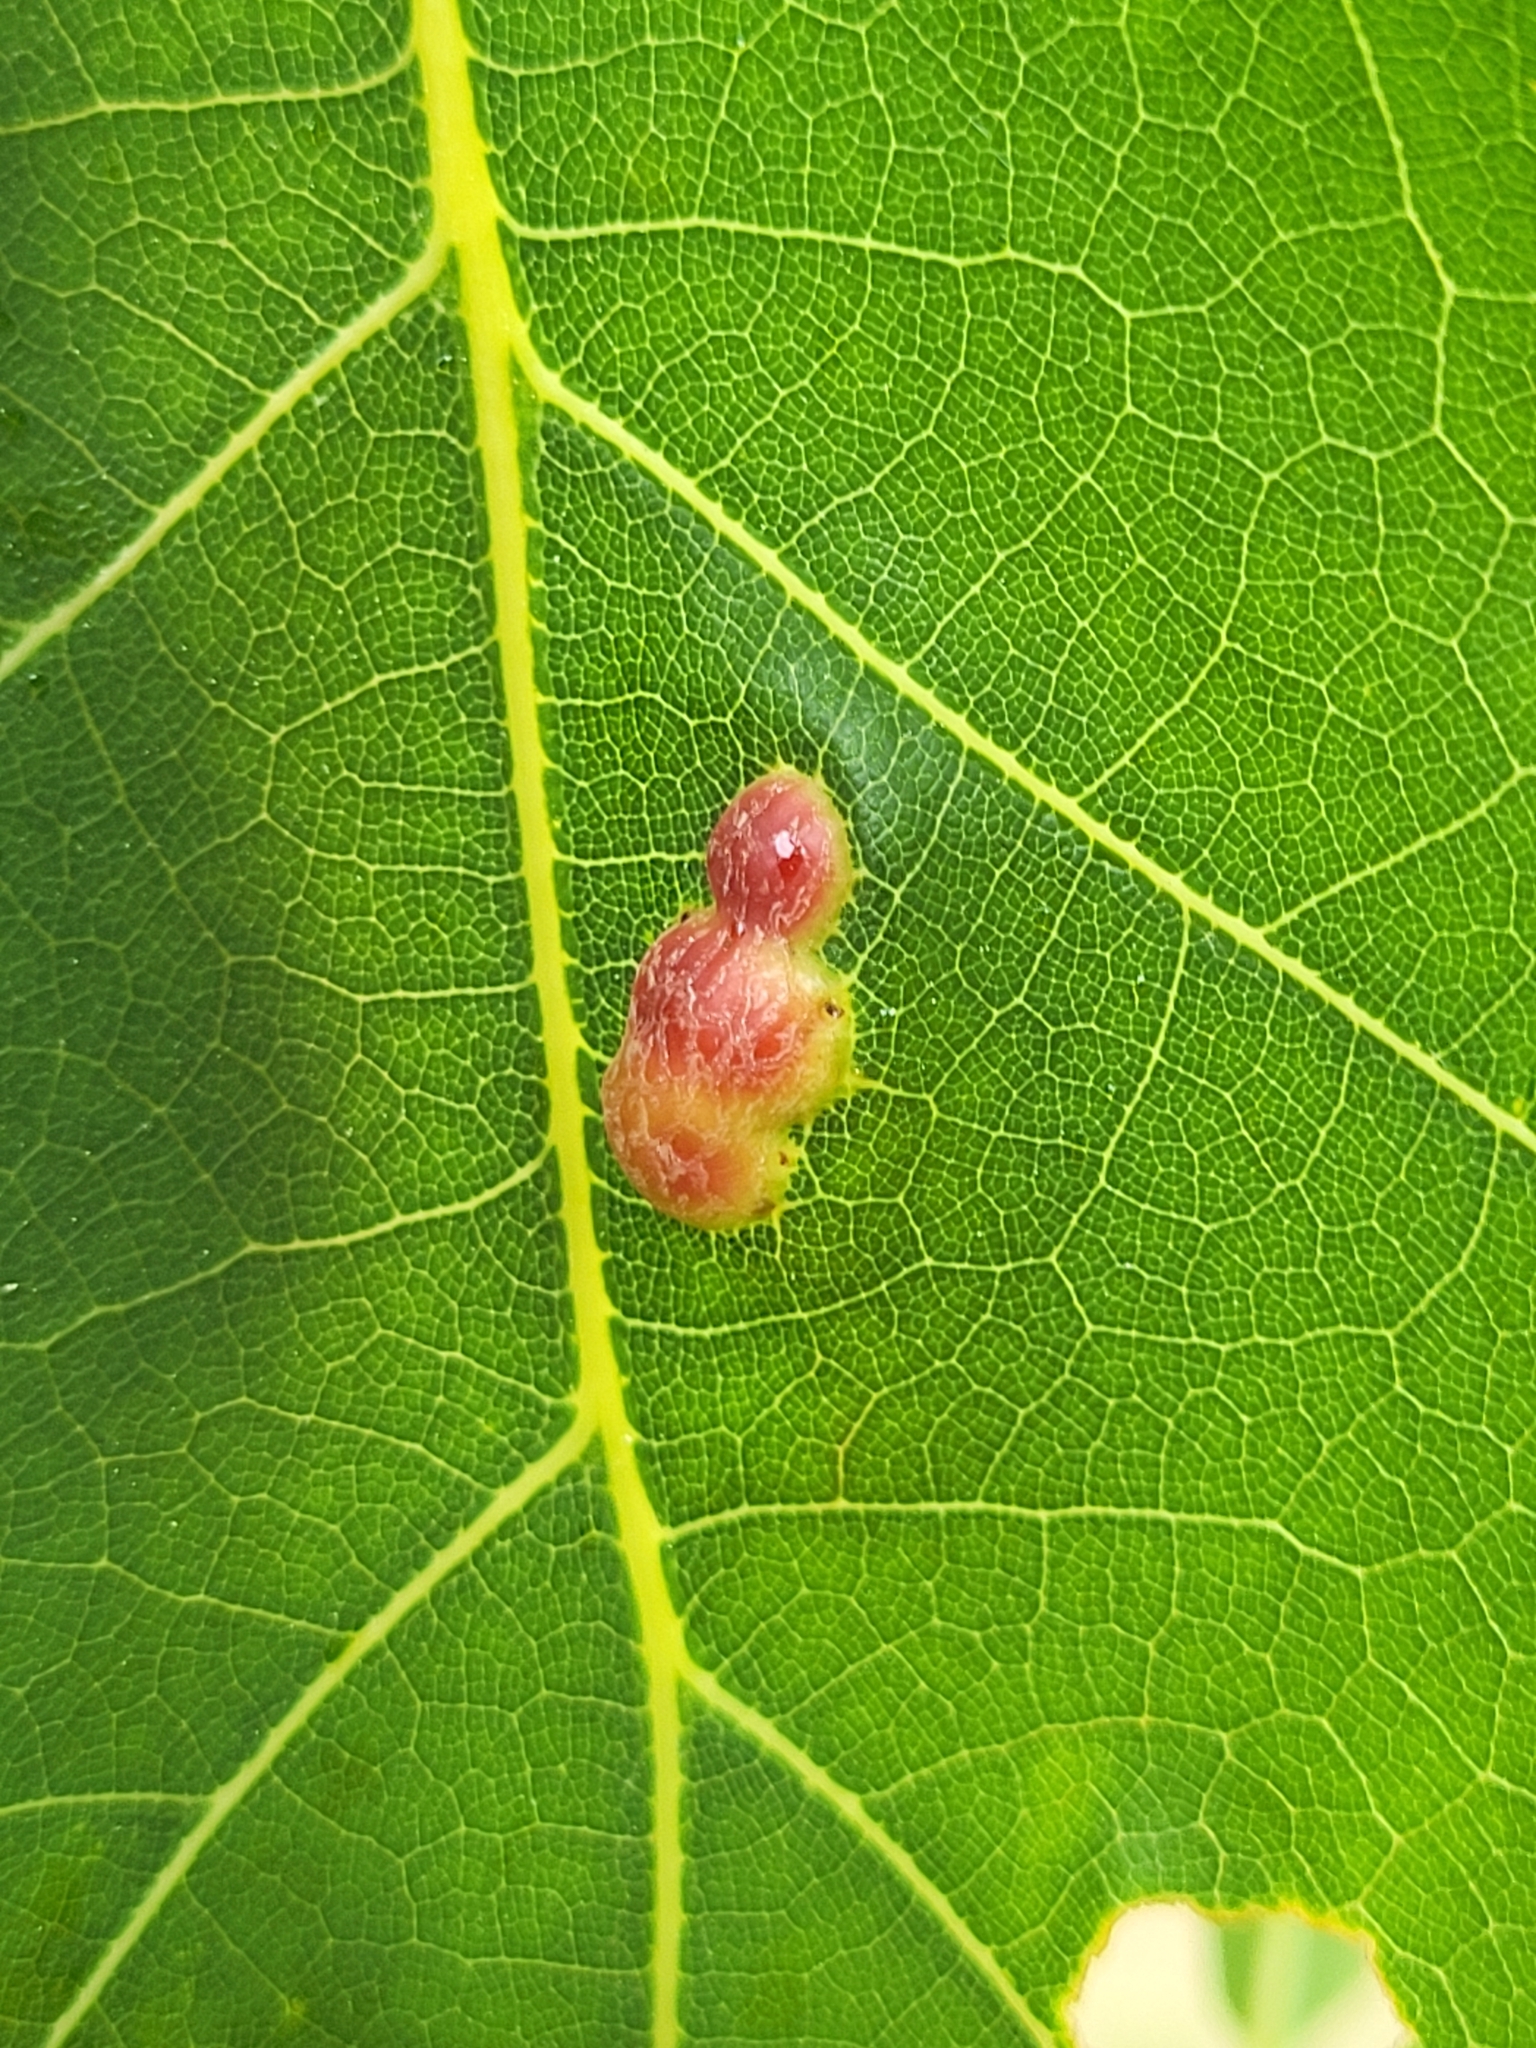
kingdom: Animalia
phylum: Arthropoda
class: Insecta
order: Diptera
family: Cecidomyiidae
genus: Polystepha
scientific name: Polystepha pilulae
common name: Oak leaf gall midge
